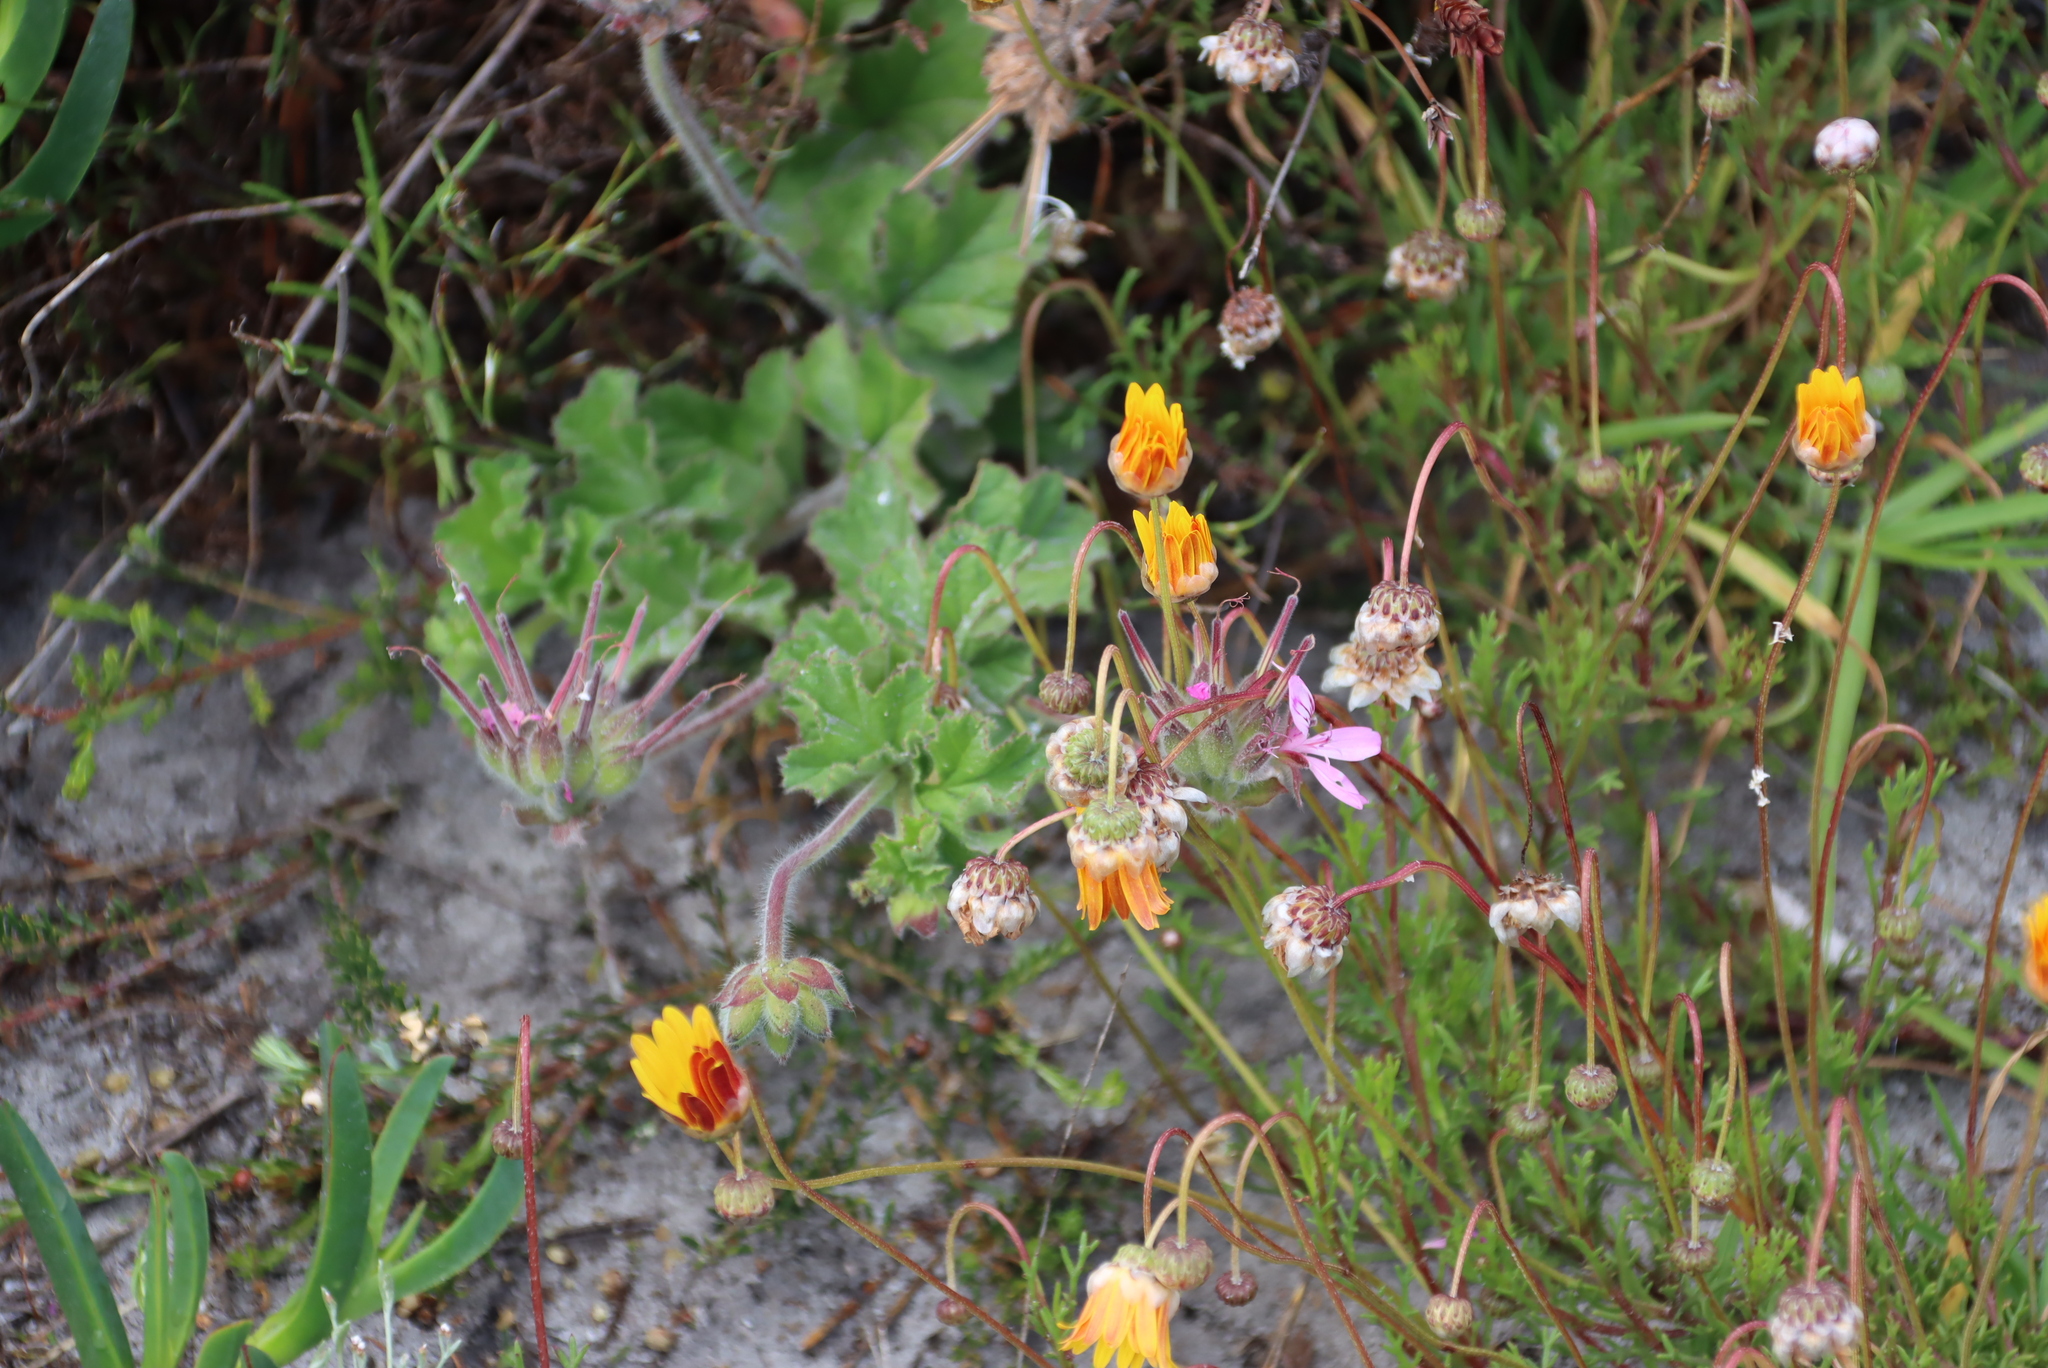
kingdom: Plantae
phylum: Tracheophyta
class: Magnoliopsida
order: Geraniales
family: Geraniaceae
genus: Pelargonium
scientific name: Pelargonium capitatum
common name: Rose scented geranium
